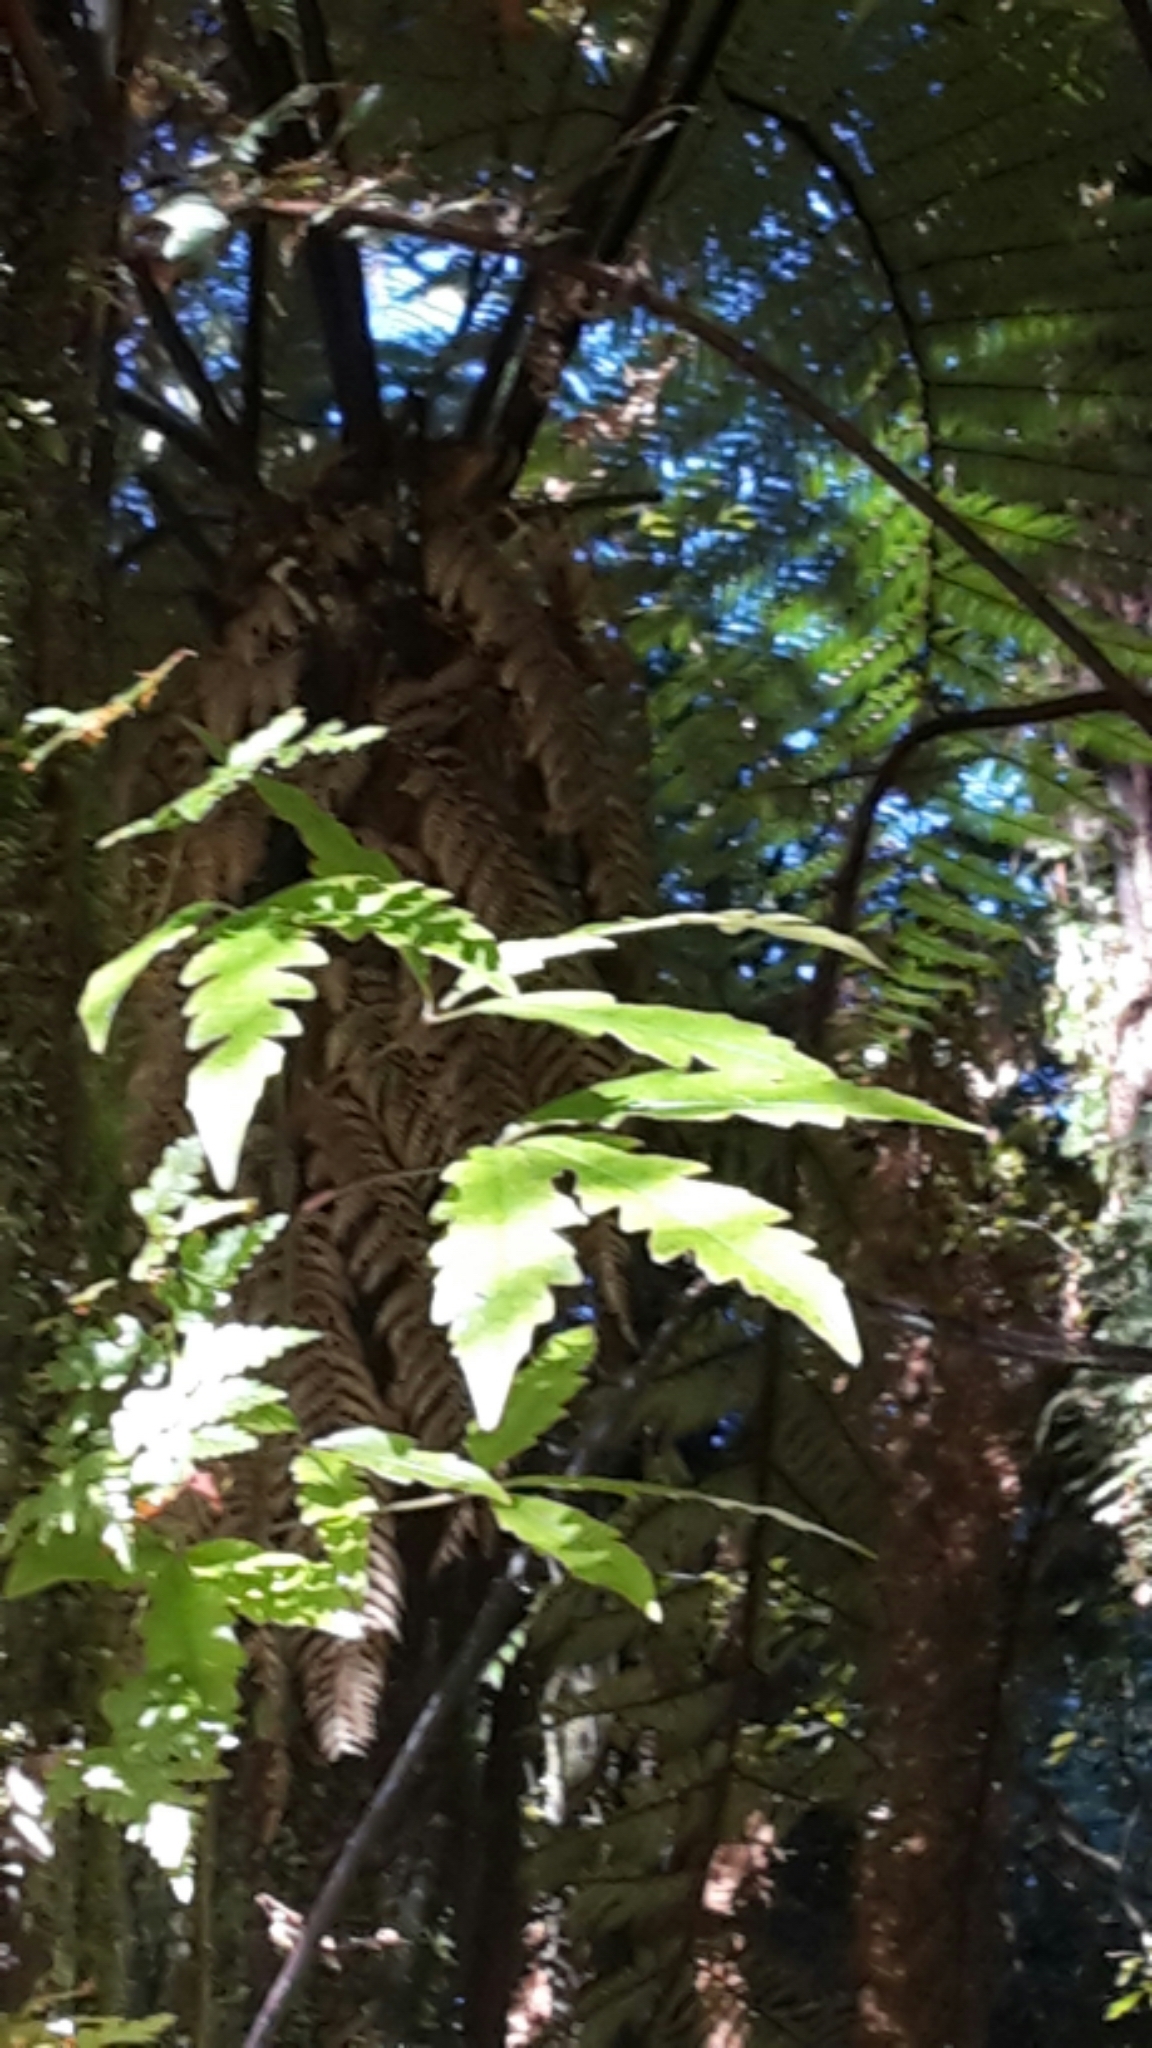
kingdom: Plantae
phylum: Tracheophyta
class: Magnoliopsida
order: Apiales
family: Araliaceae
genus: Raukaua
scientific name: Raukaua edgerleyi
